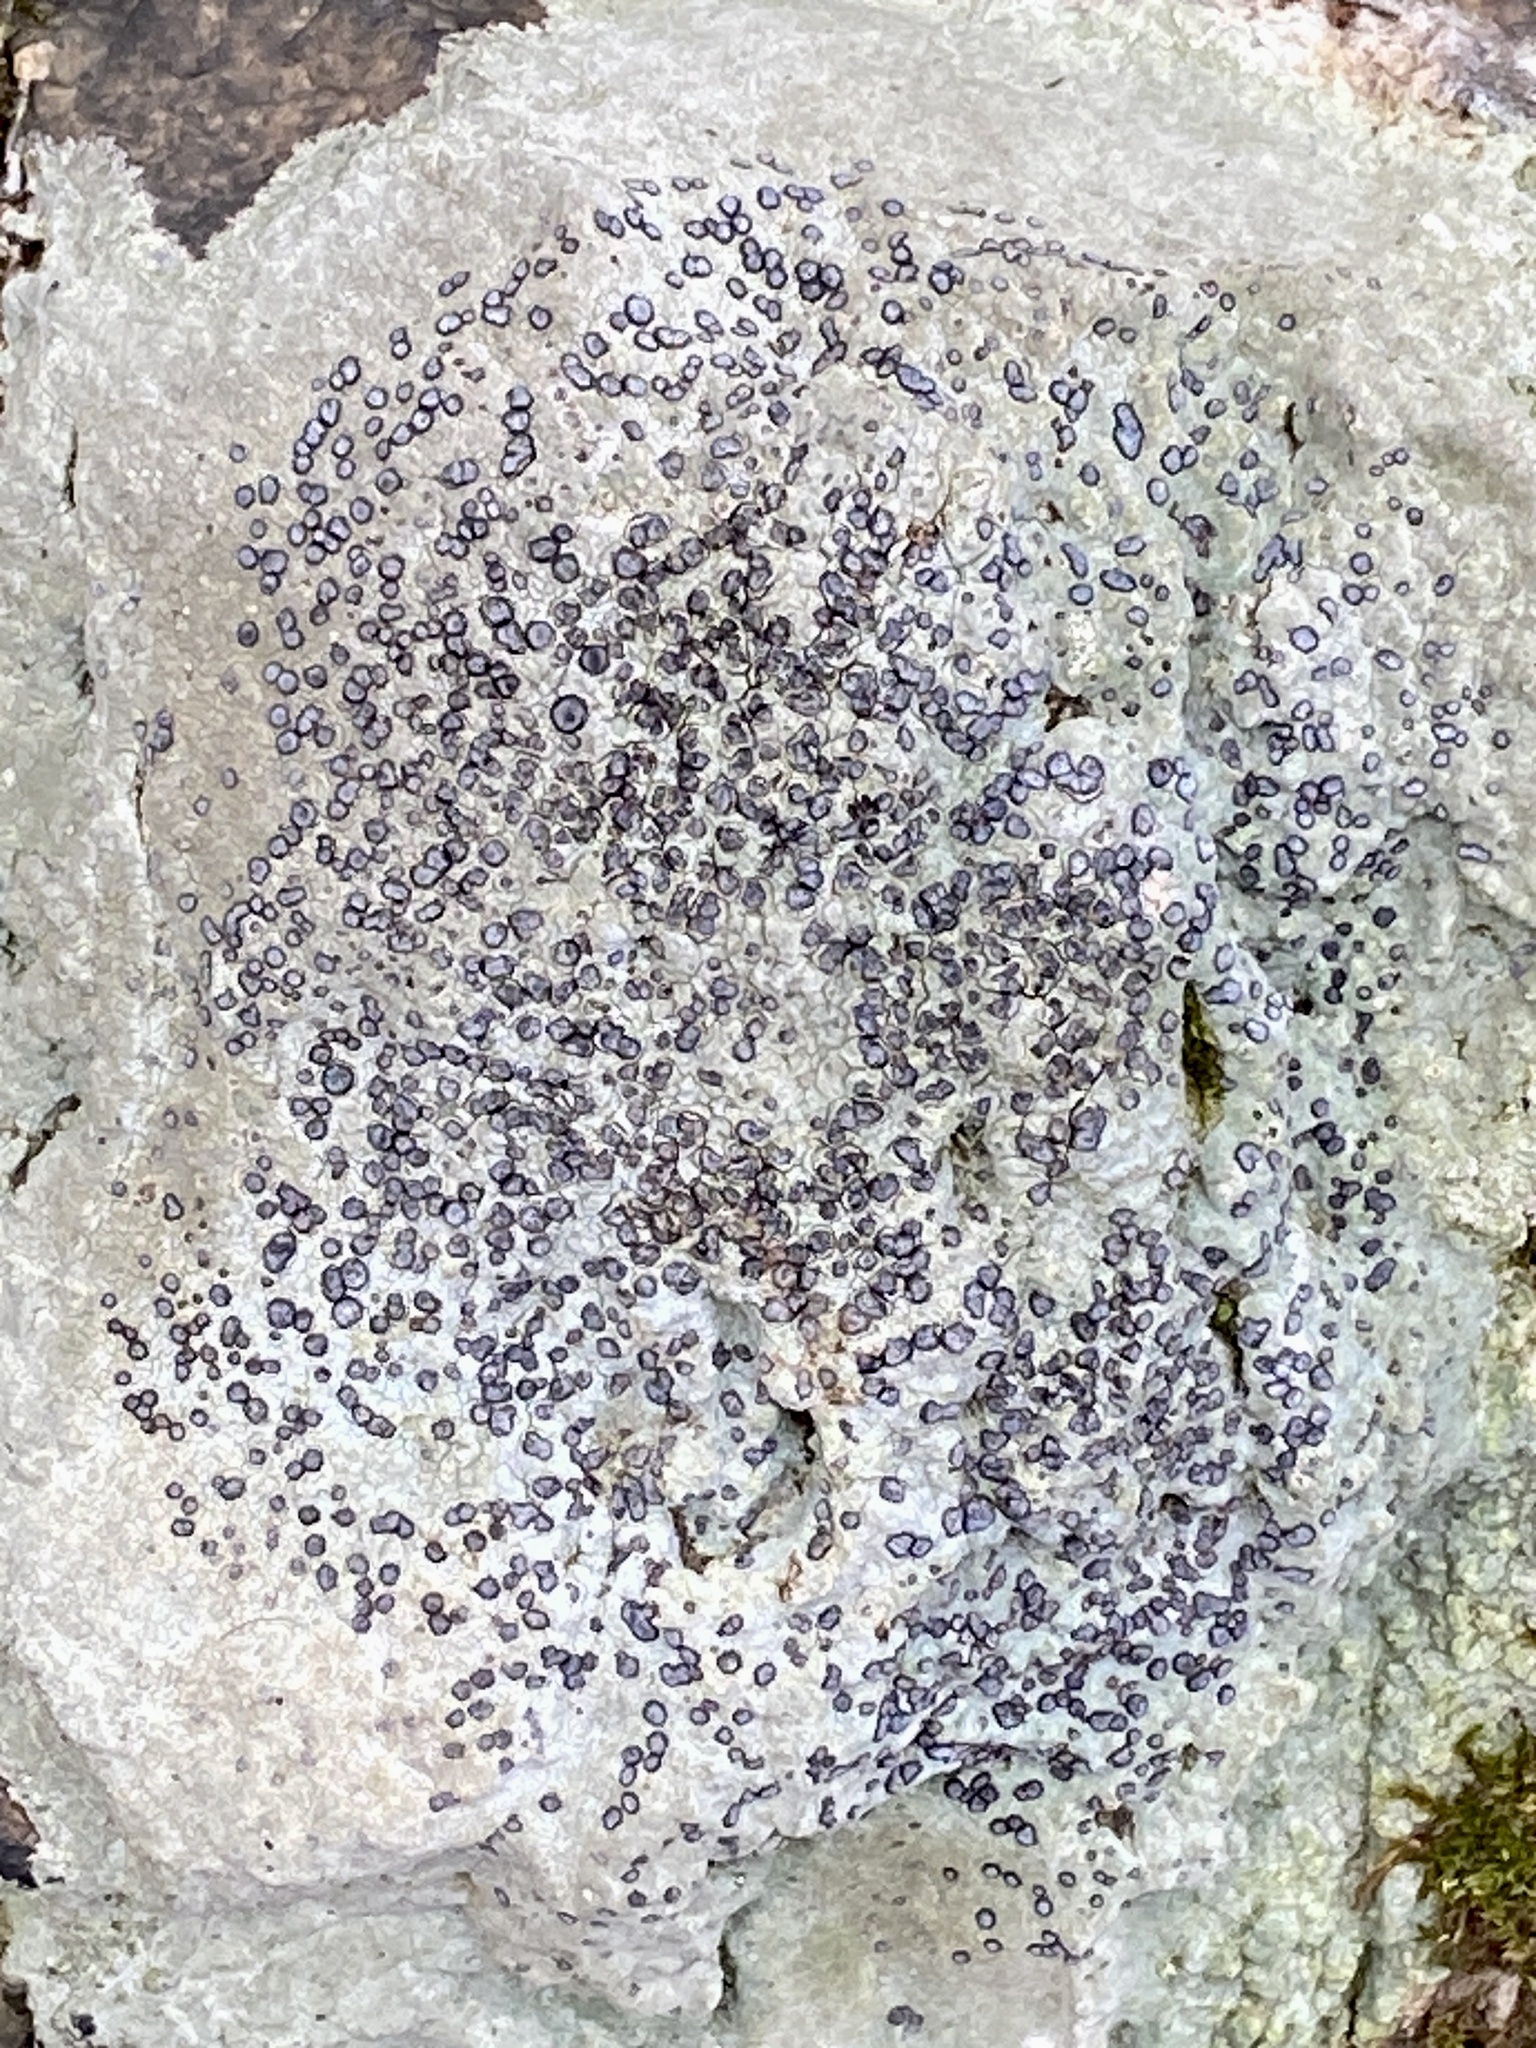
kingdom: Fungi
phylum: Ascomycota
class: Lecanoromycetes
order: Lecideales
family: Lecideaceae
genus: Porpidia
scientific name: Porpidia albocaerulescens
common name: Smokey-eyed boulder lichen
